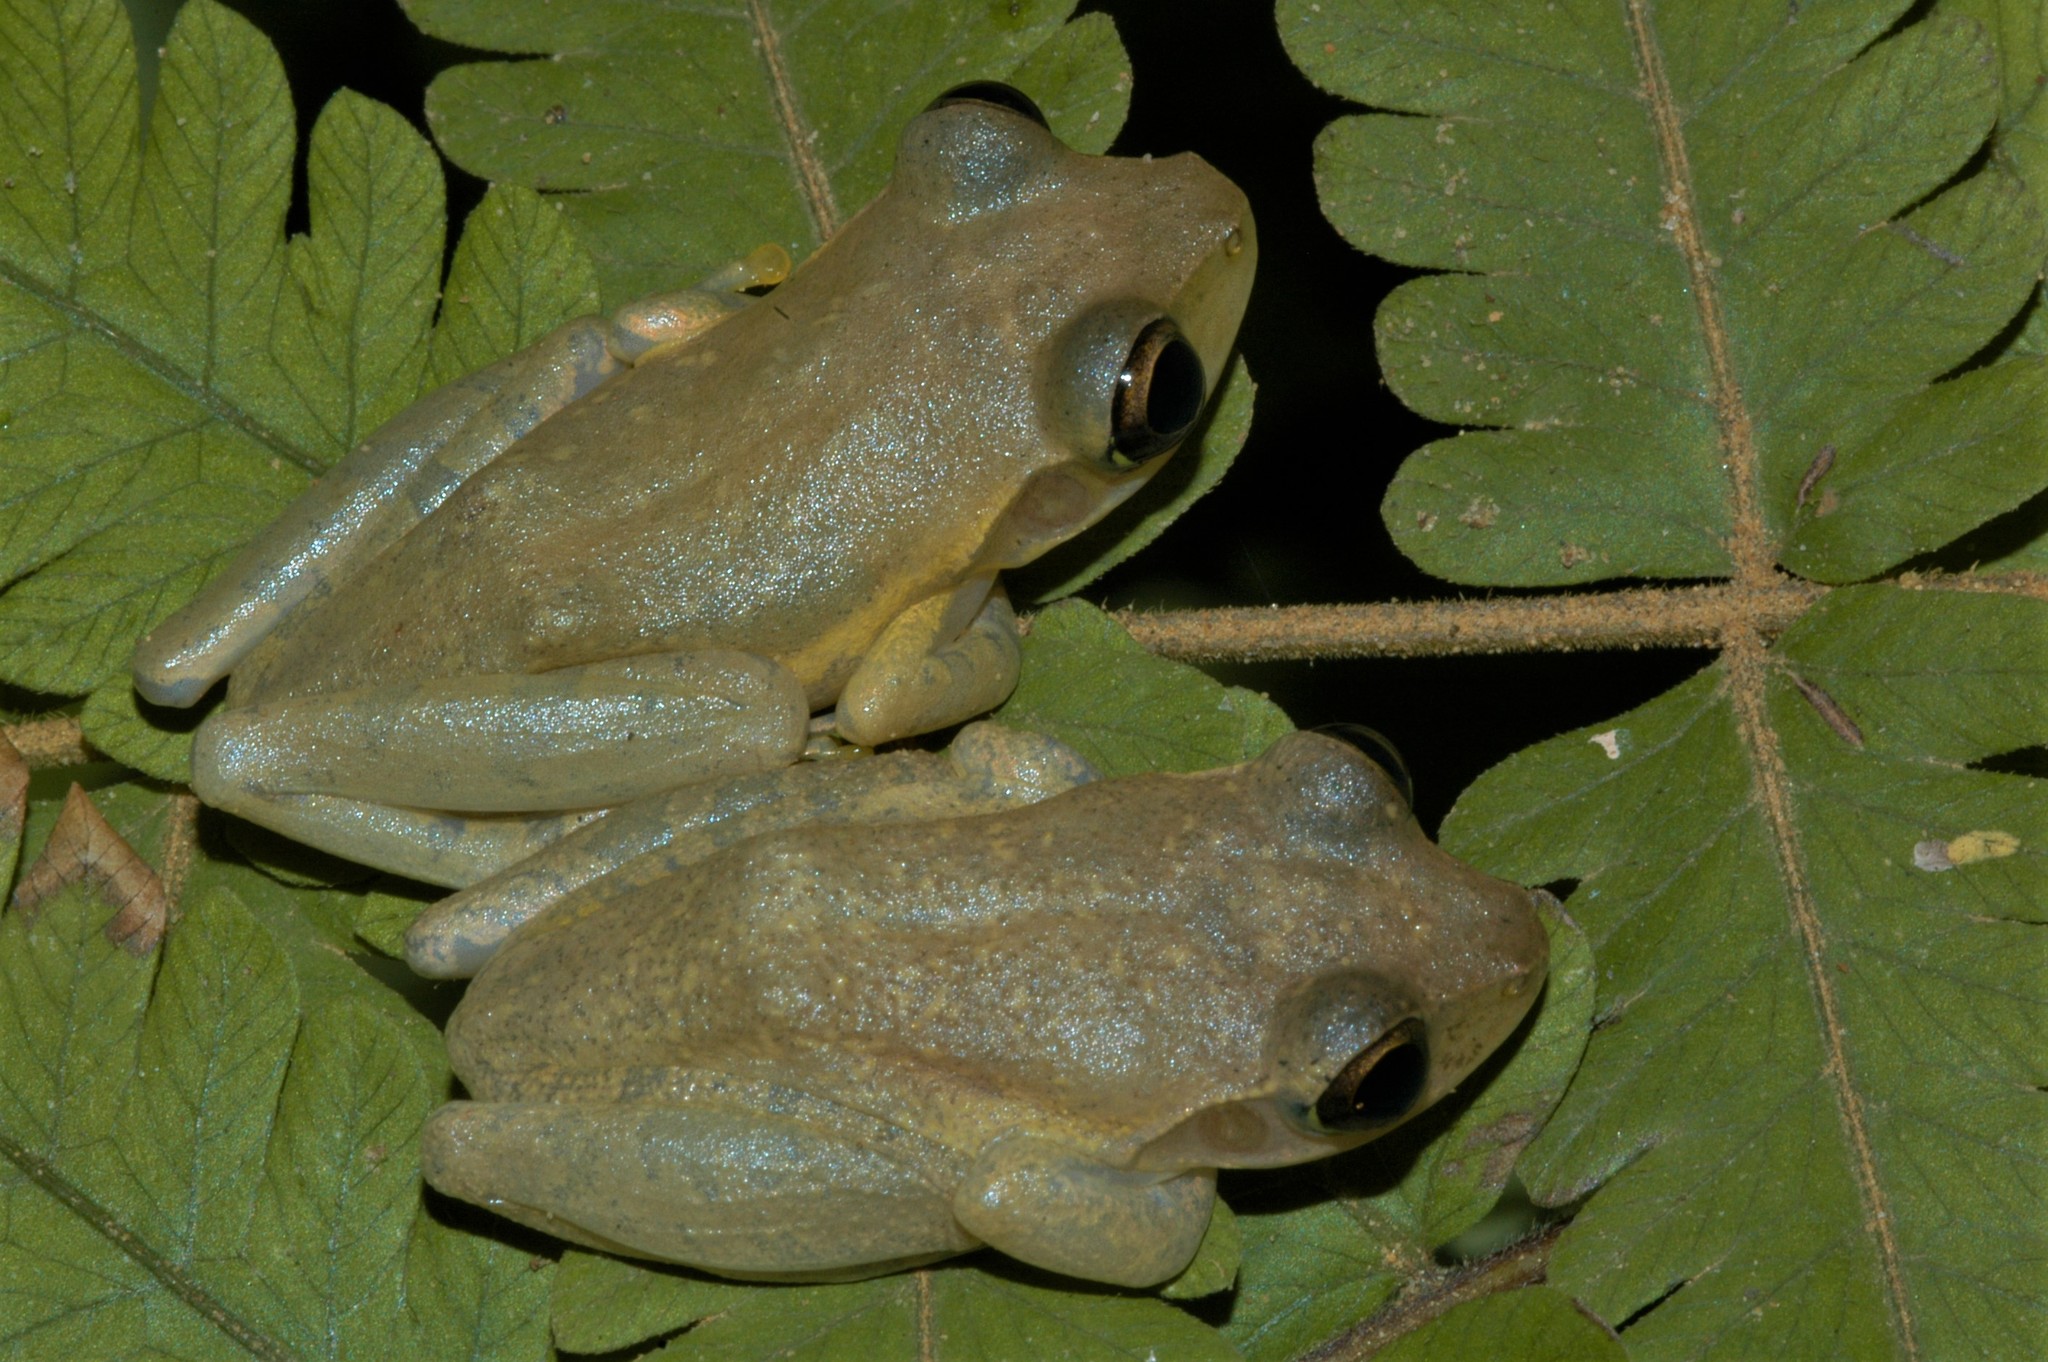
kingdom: Animalia
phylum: Chordata
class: Amphibia
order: Anura
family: Mantellidae
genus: Boophis
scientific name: Boophis tephraeomystax
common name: Dumeril's bright-eyed frog
